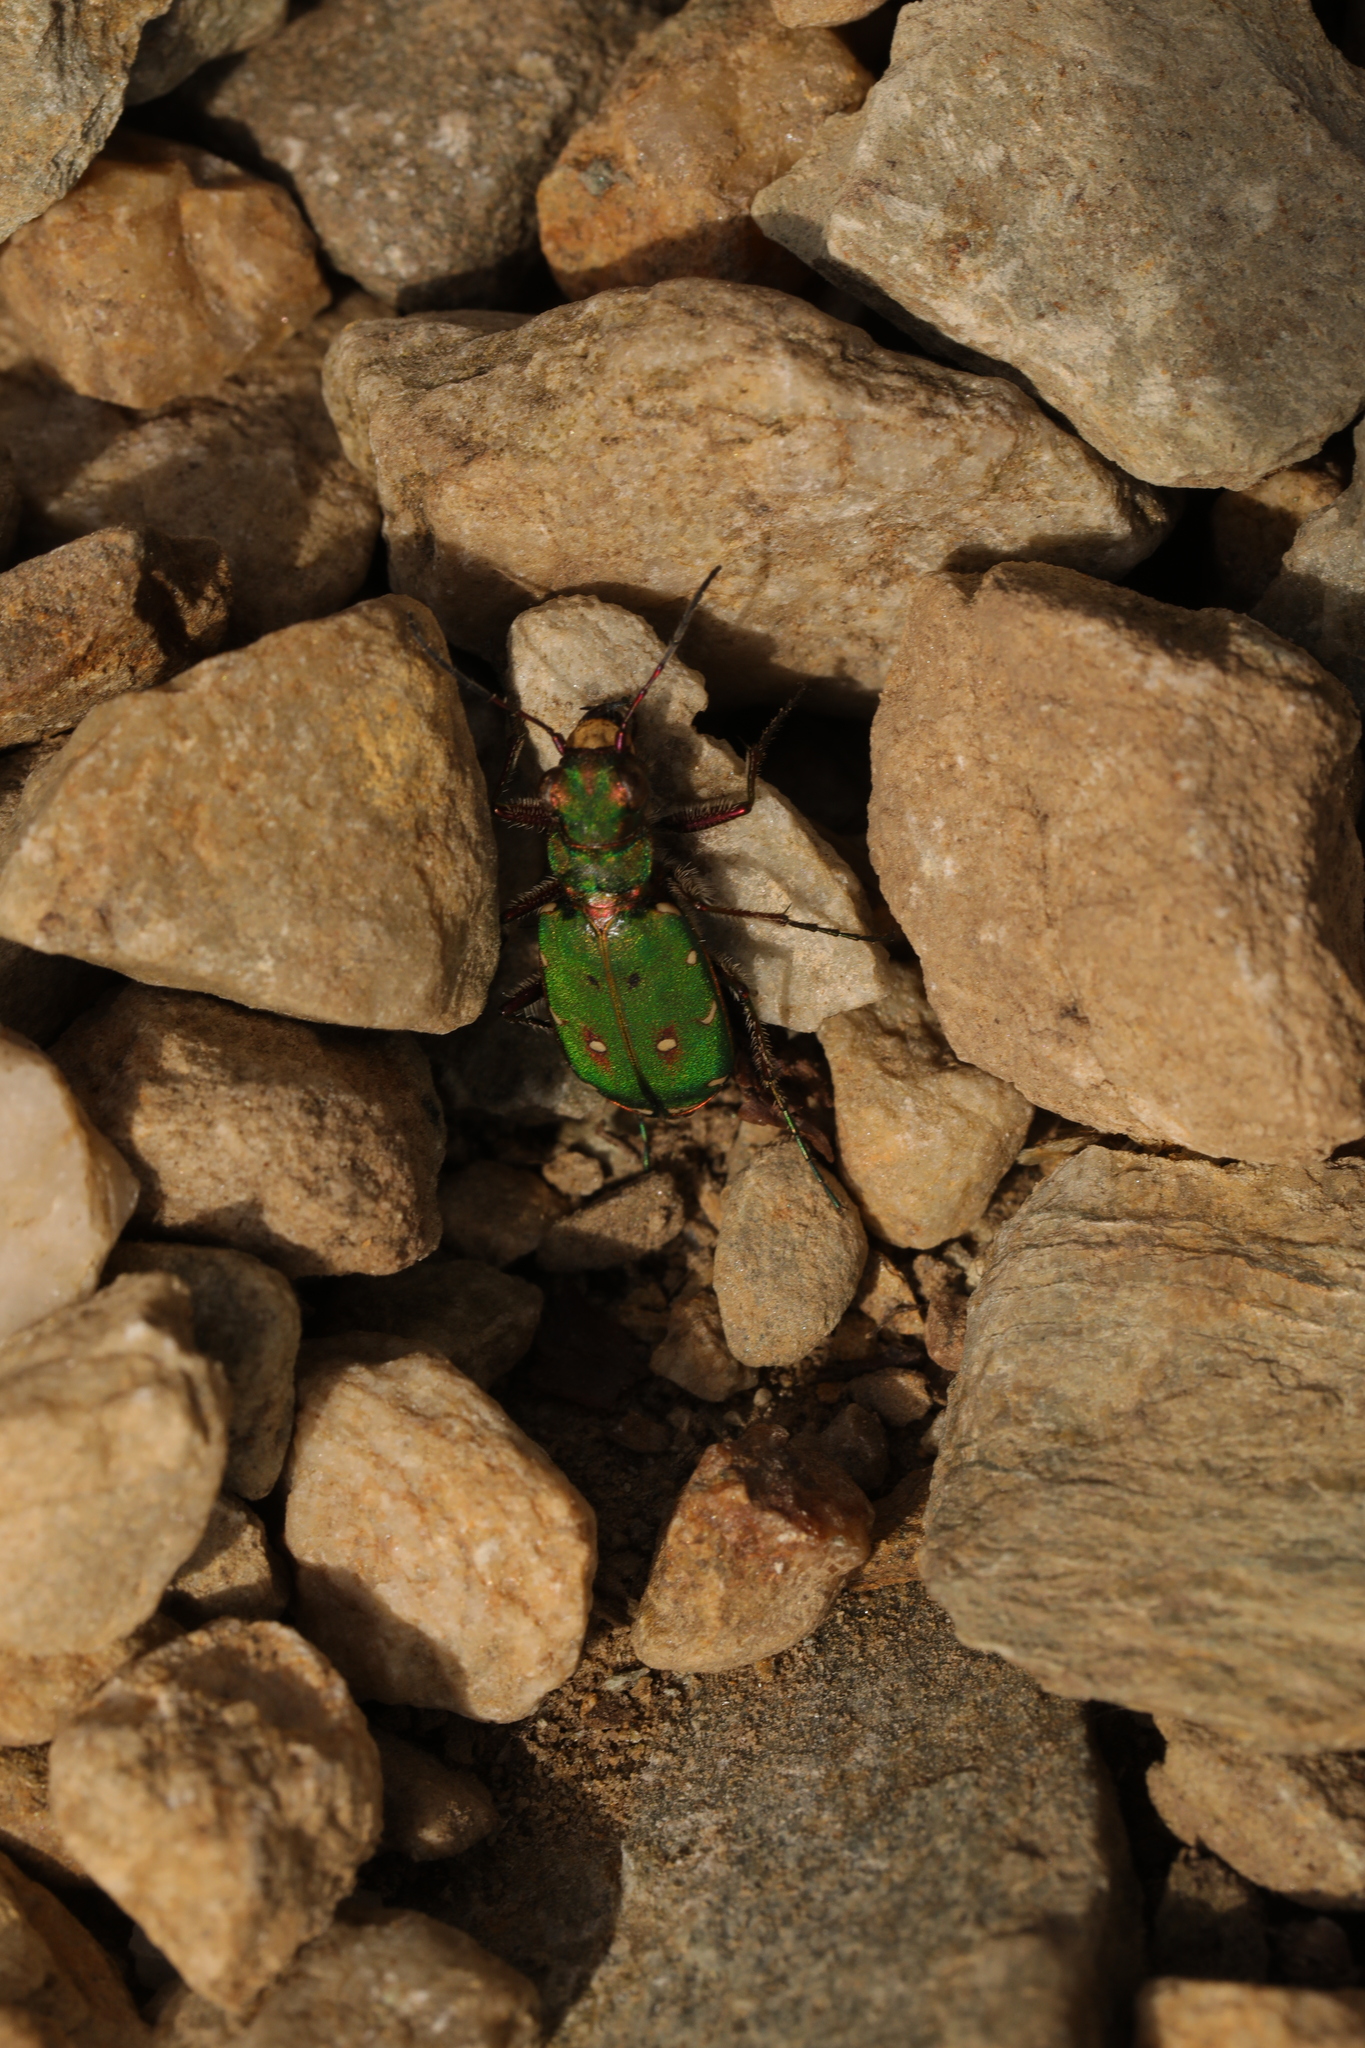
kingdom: Animalia
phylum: Arthropoda
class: Insecta
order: Coleoptera
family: Carabidae
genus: Cicindela
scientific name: Cicindela campestris
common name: Common tiger beetle
